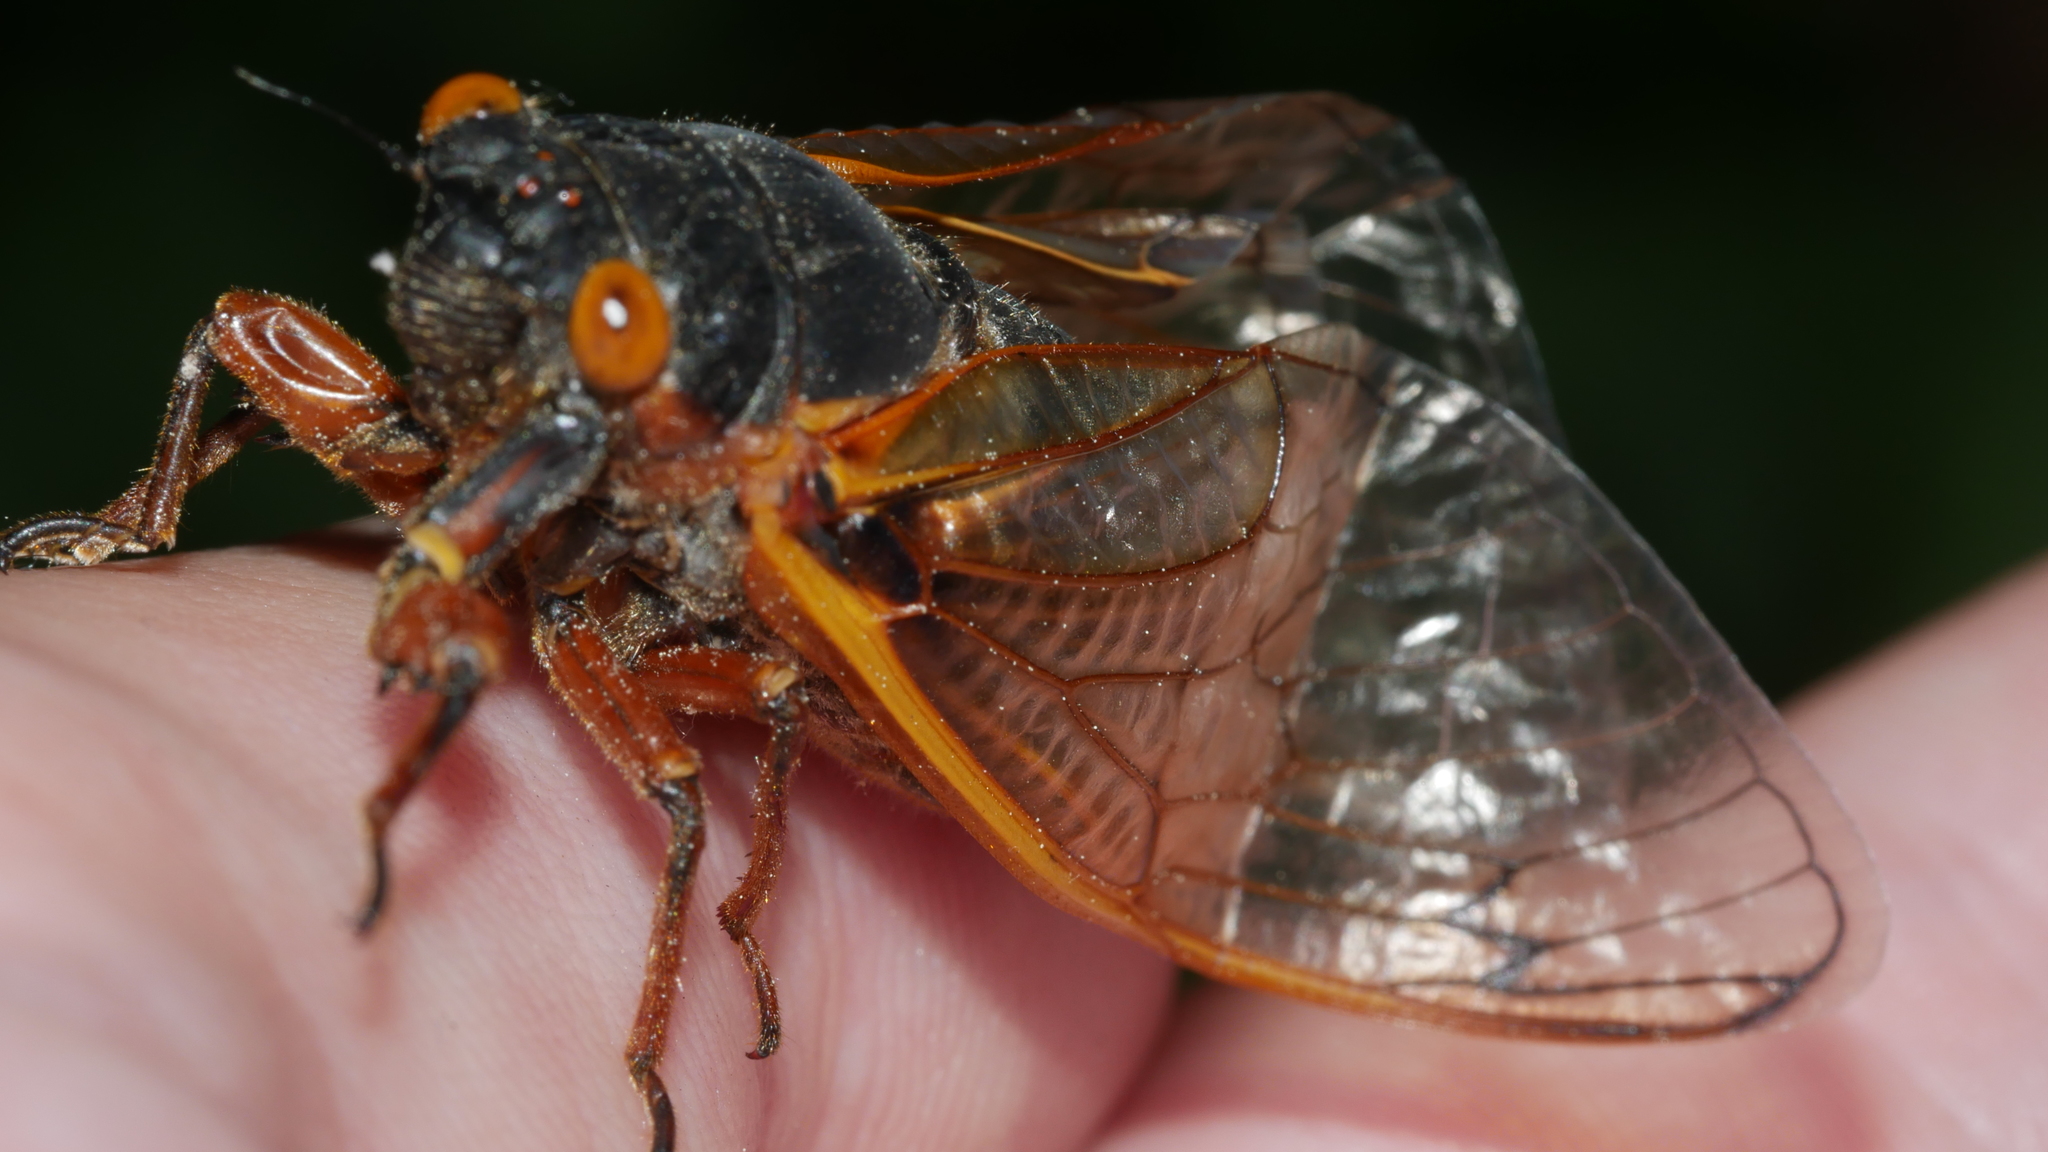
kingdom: Animalia
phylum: Arthropoda
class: Insecta
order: Hemiptera
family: Cicadidae
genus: Magicicada
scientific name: Magicicada septendecim
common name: Periodical cicada
